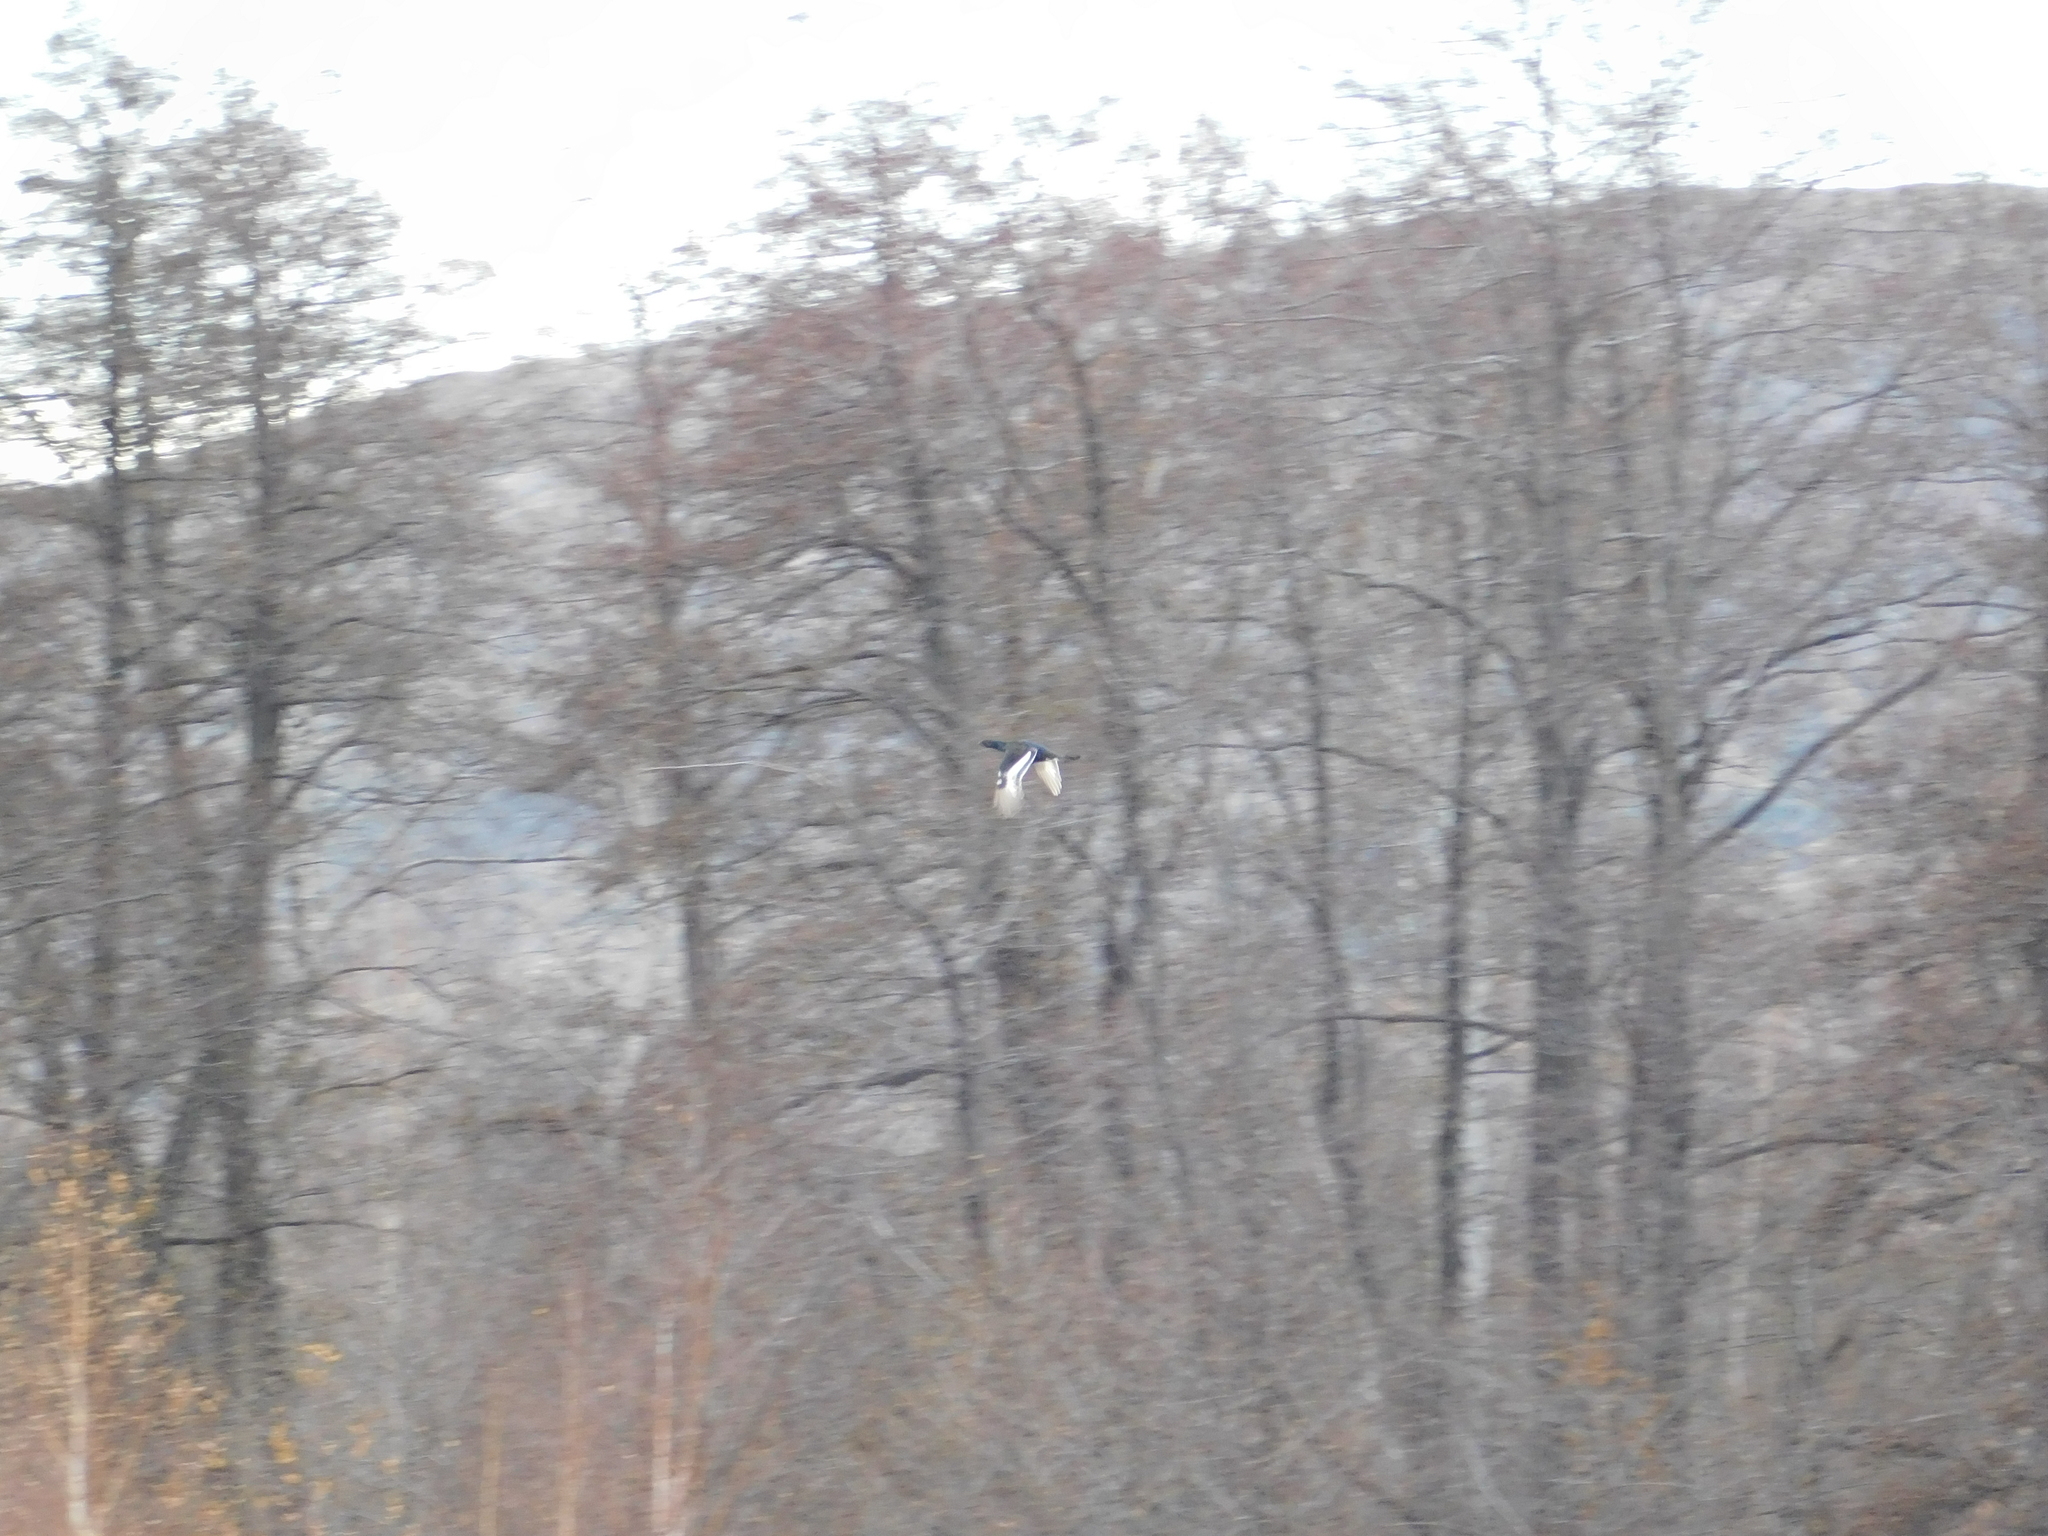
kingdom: Animalia
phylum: Chordata
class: Aves
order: Galliformes
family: Phasianidae
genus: Lyrurus
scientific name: Lyrurus tetrix
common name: Black grouse
